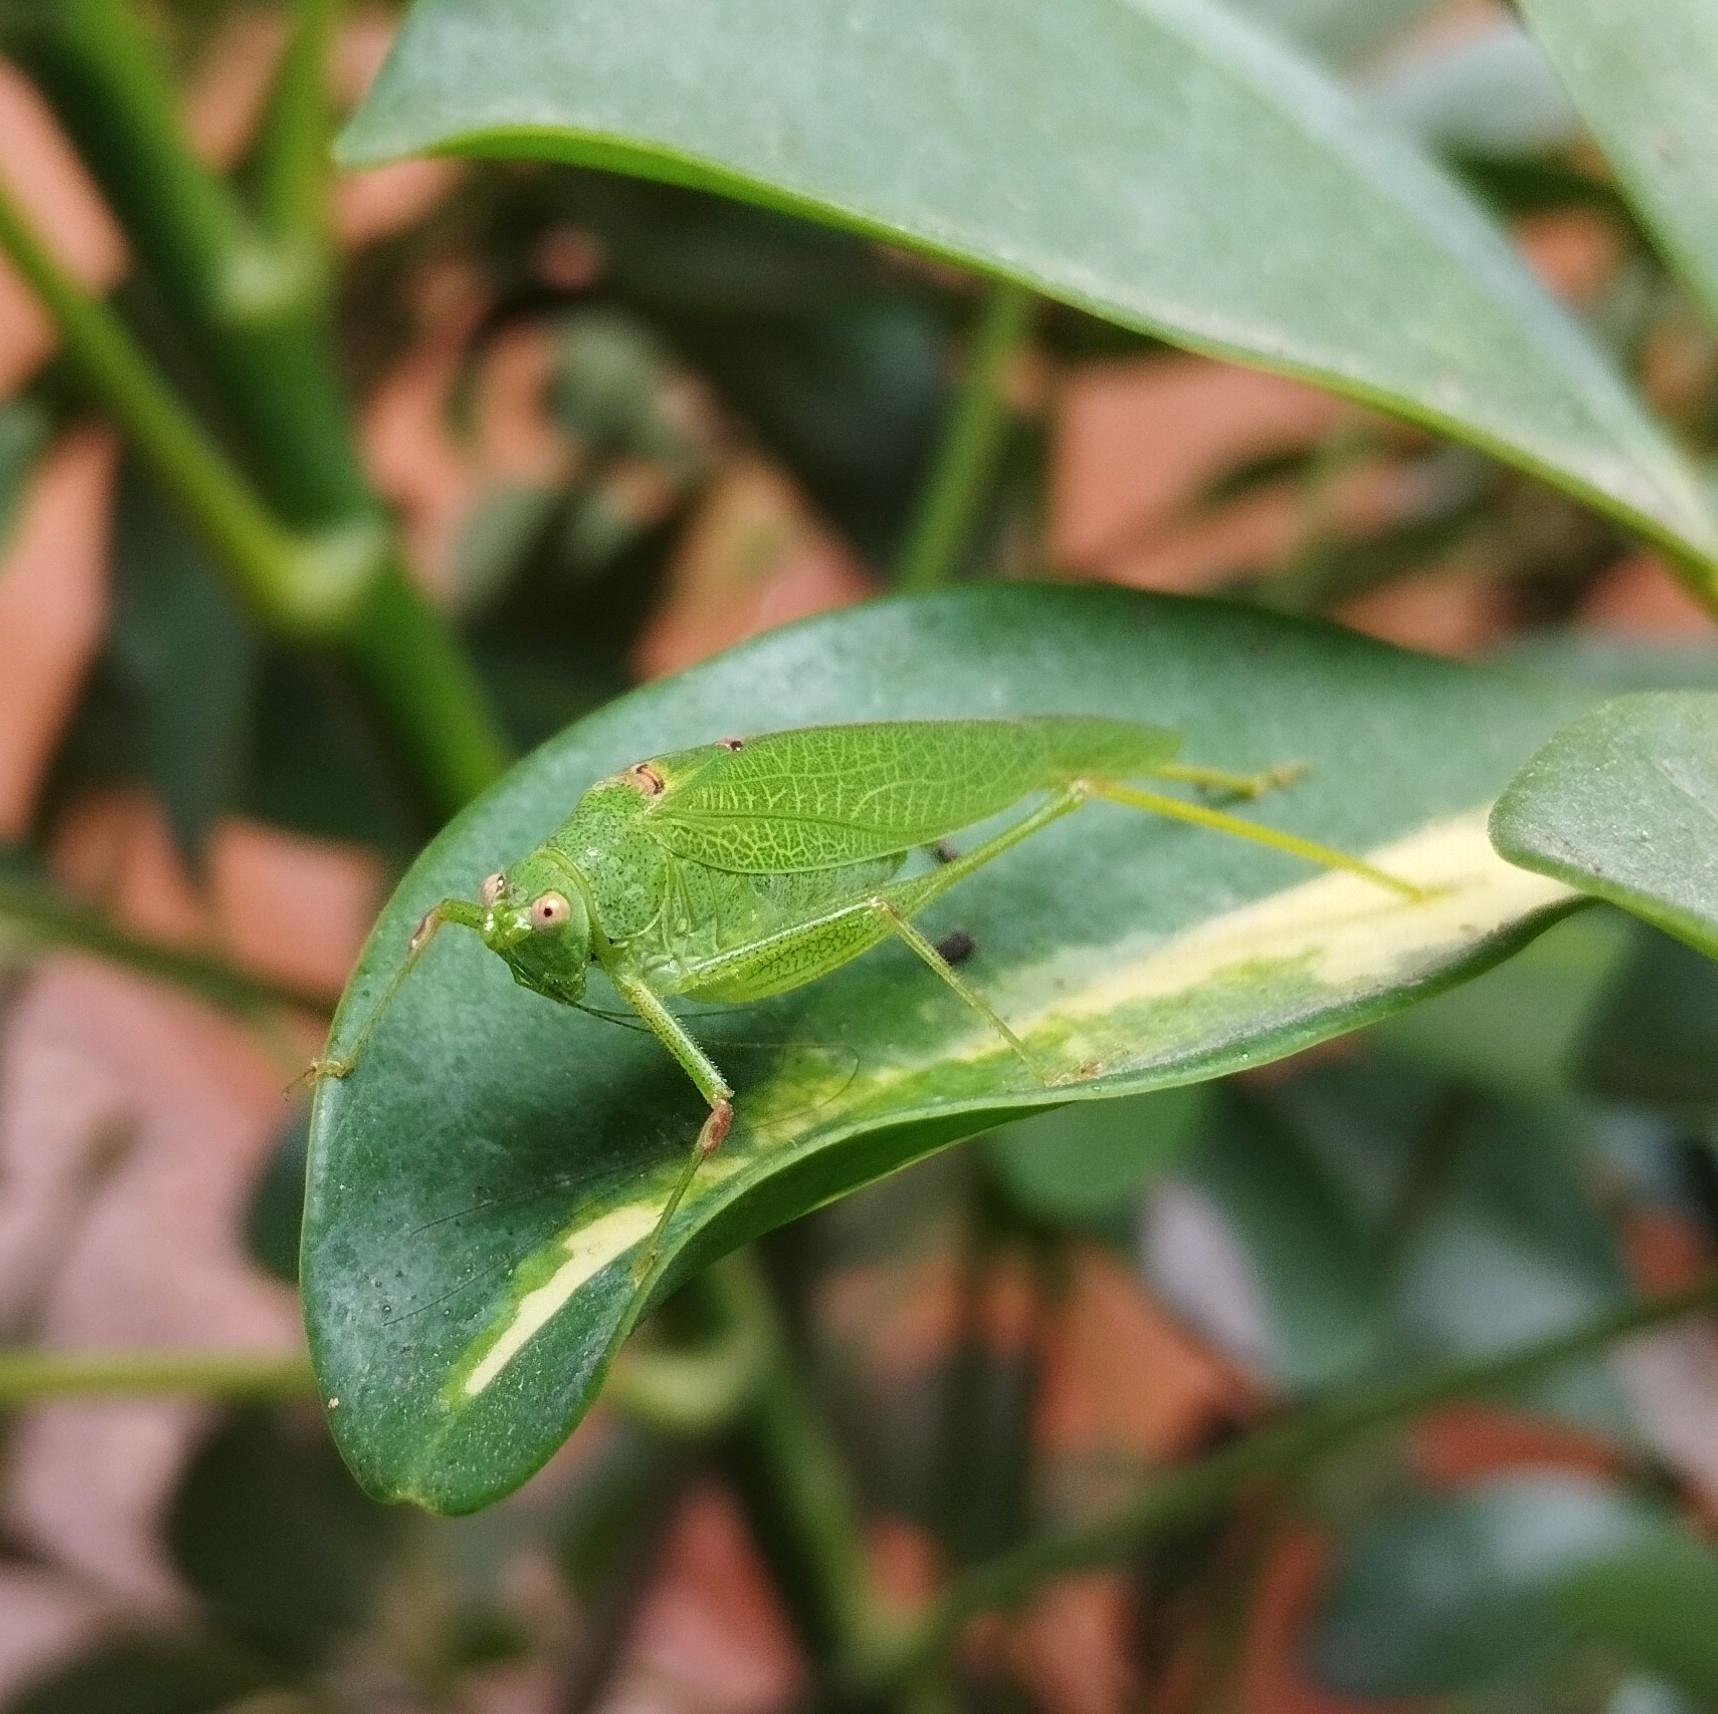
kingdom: Animalia
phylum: Arthropoda
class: Insecta
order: Orthoptera
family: Tettigoniidae
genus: Phaneroptera
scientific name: Phaneroptera nana
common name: Southern sickle bush-cricket
